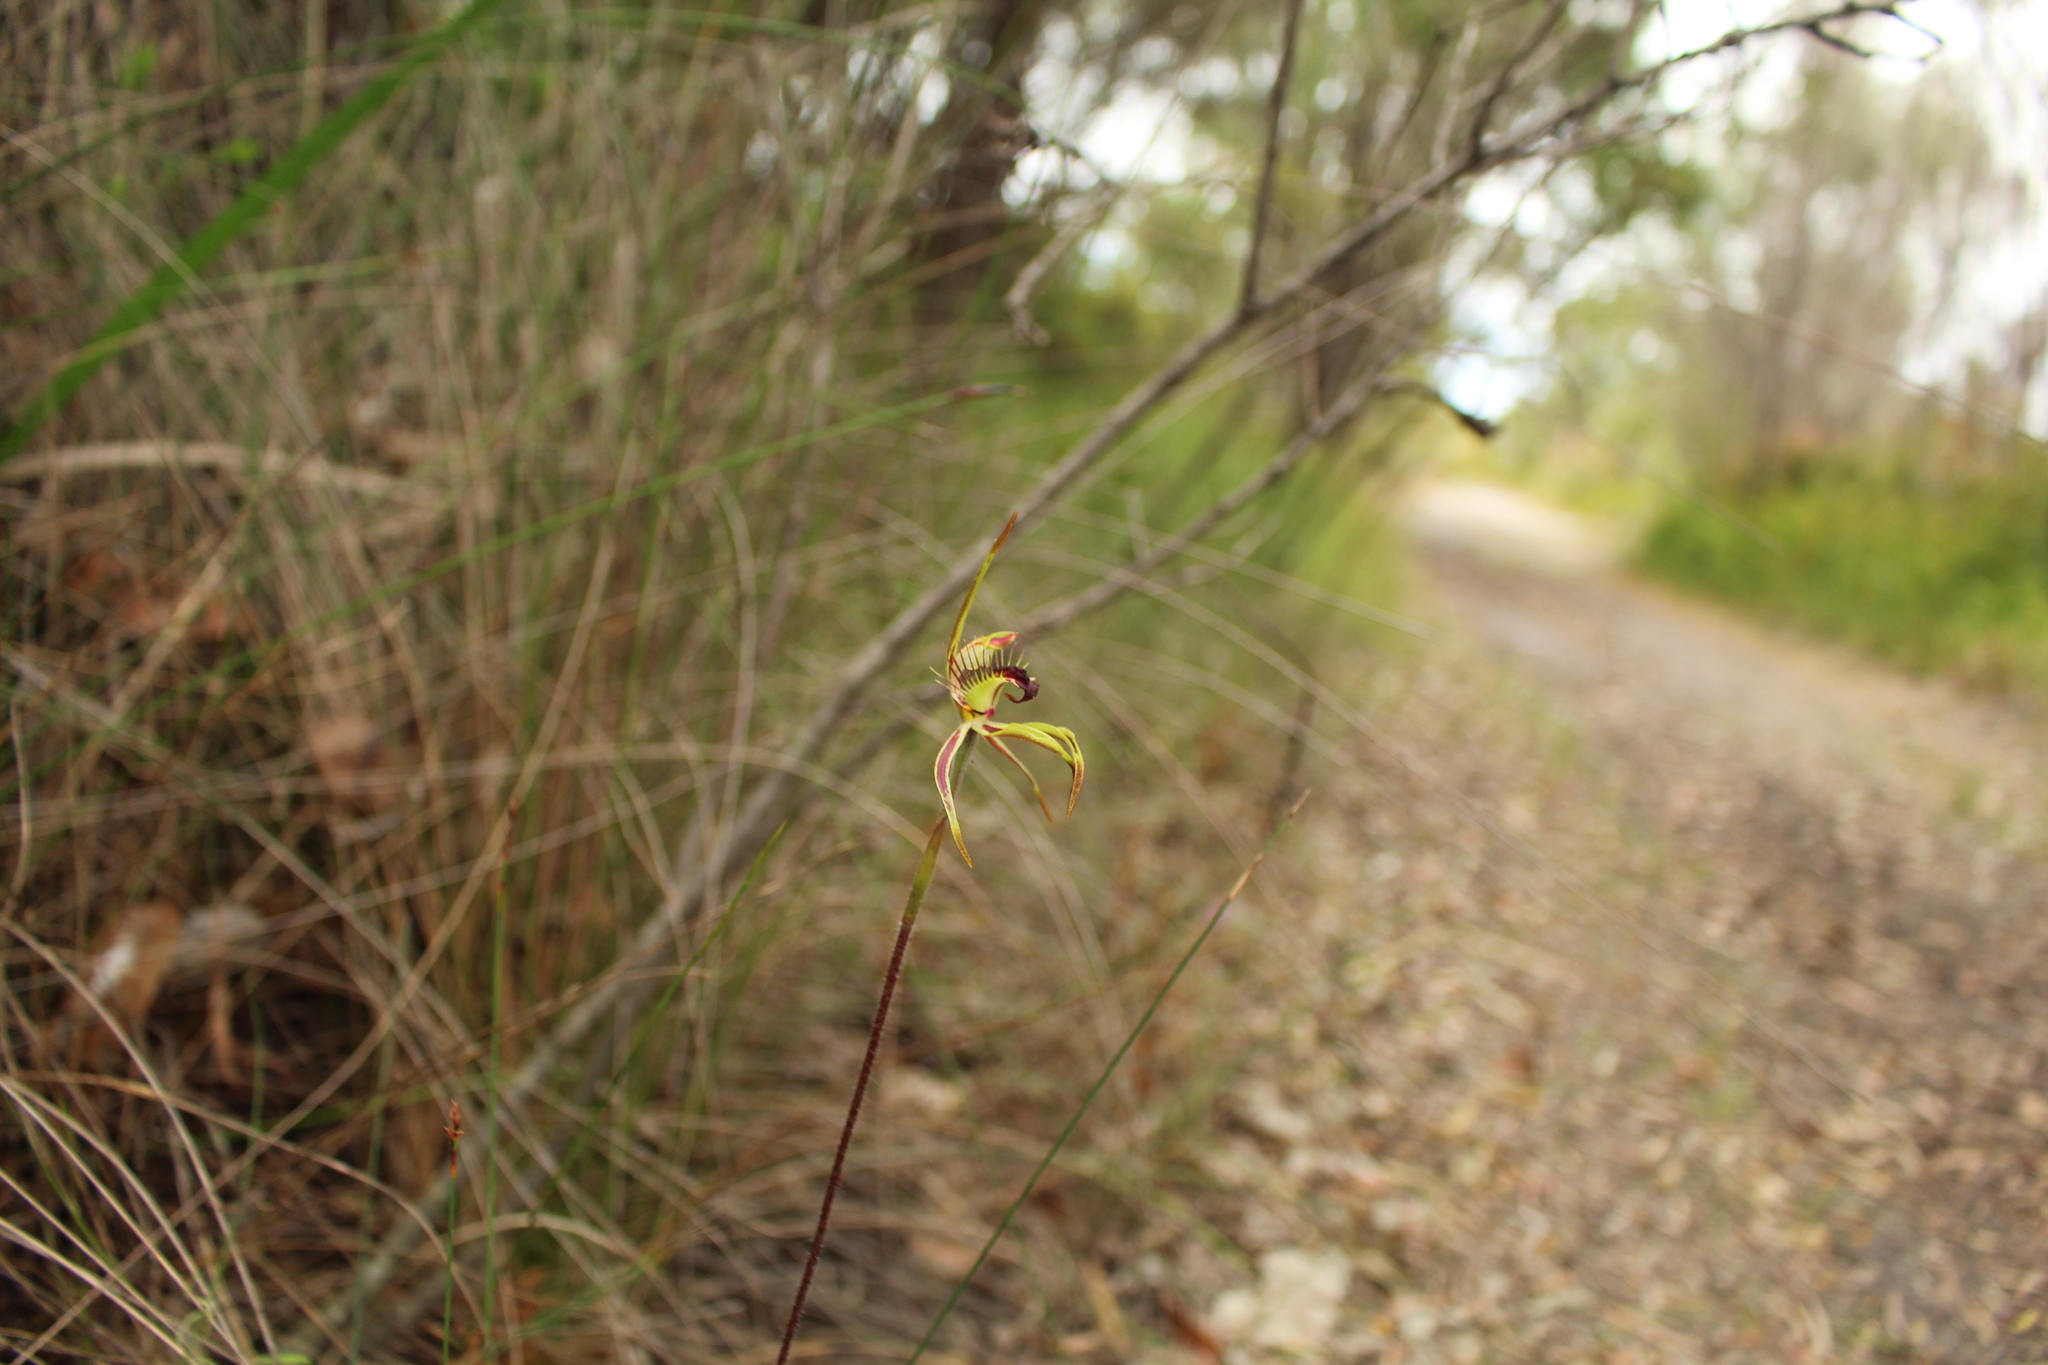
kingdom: Plantae
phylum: Tracheophyta
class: Liliopsida
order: Asparagales
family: Orchidaceae
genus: Caladenia
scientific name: Caladenia corynephora
